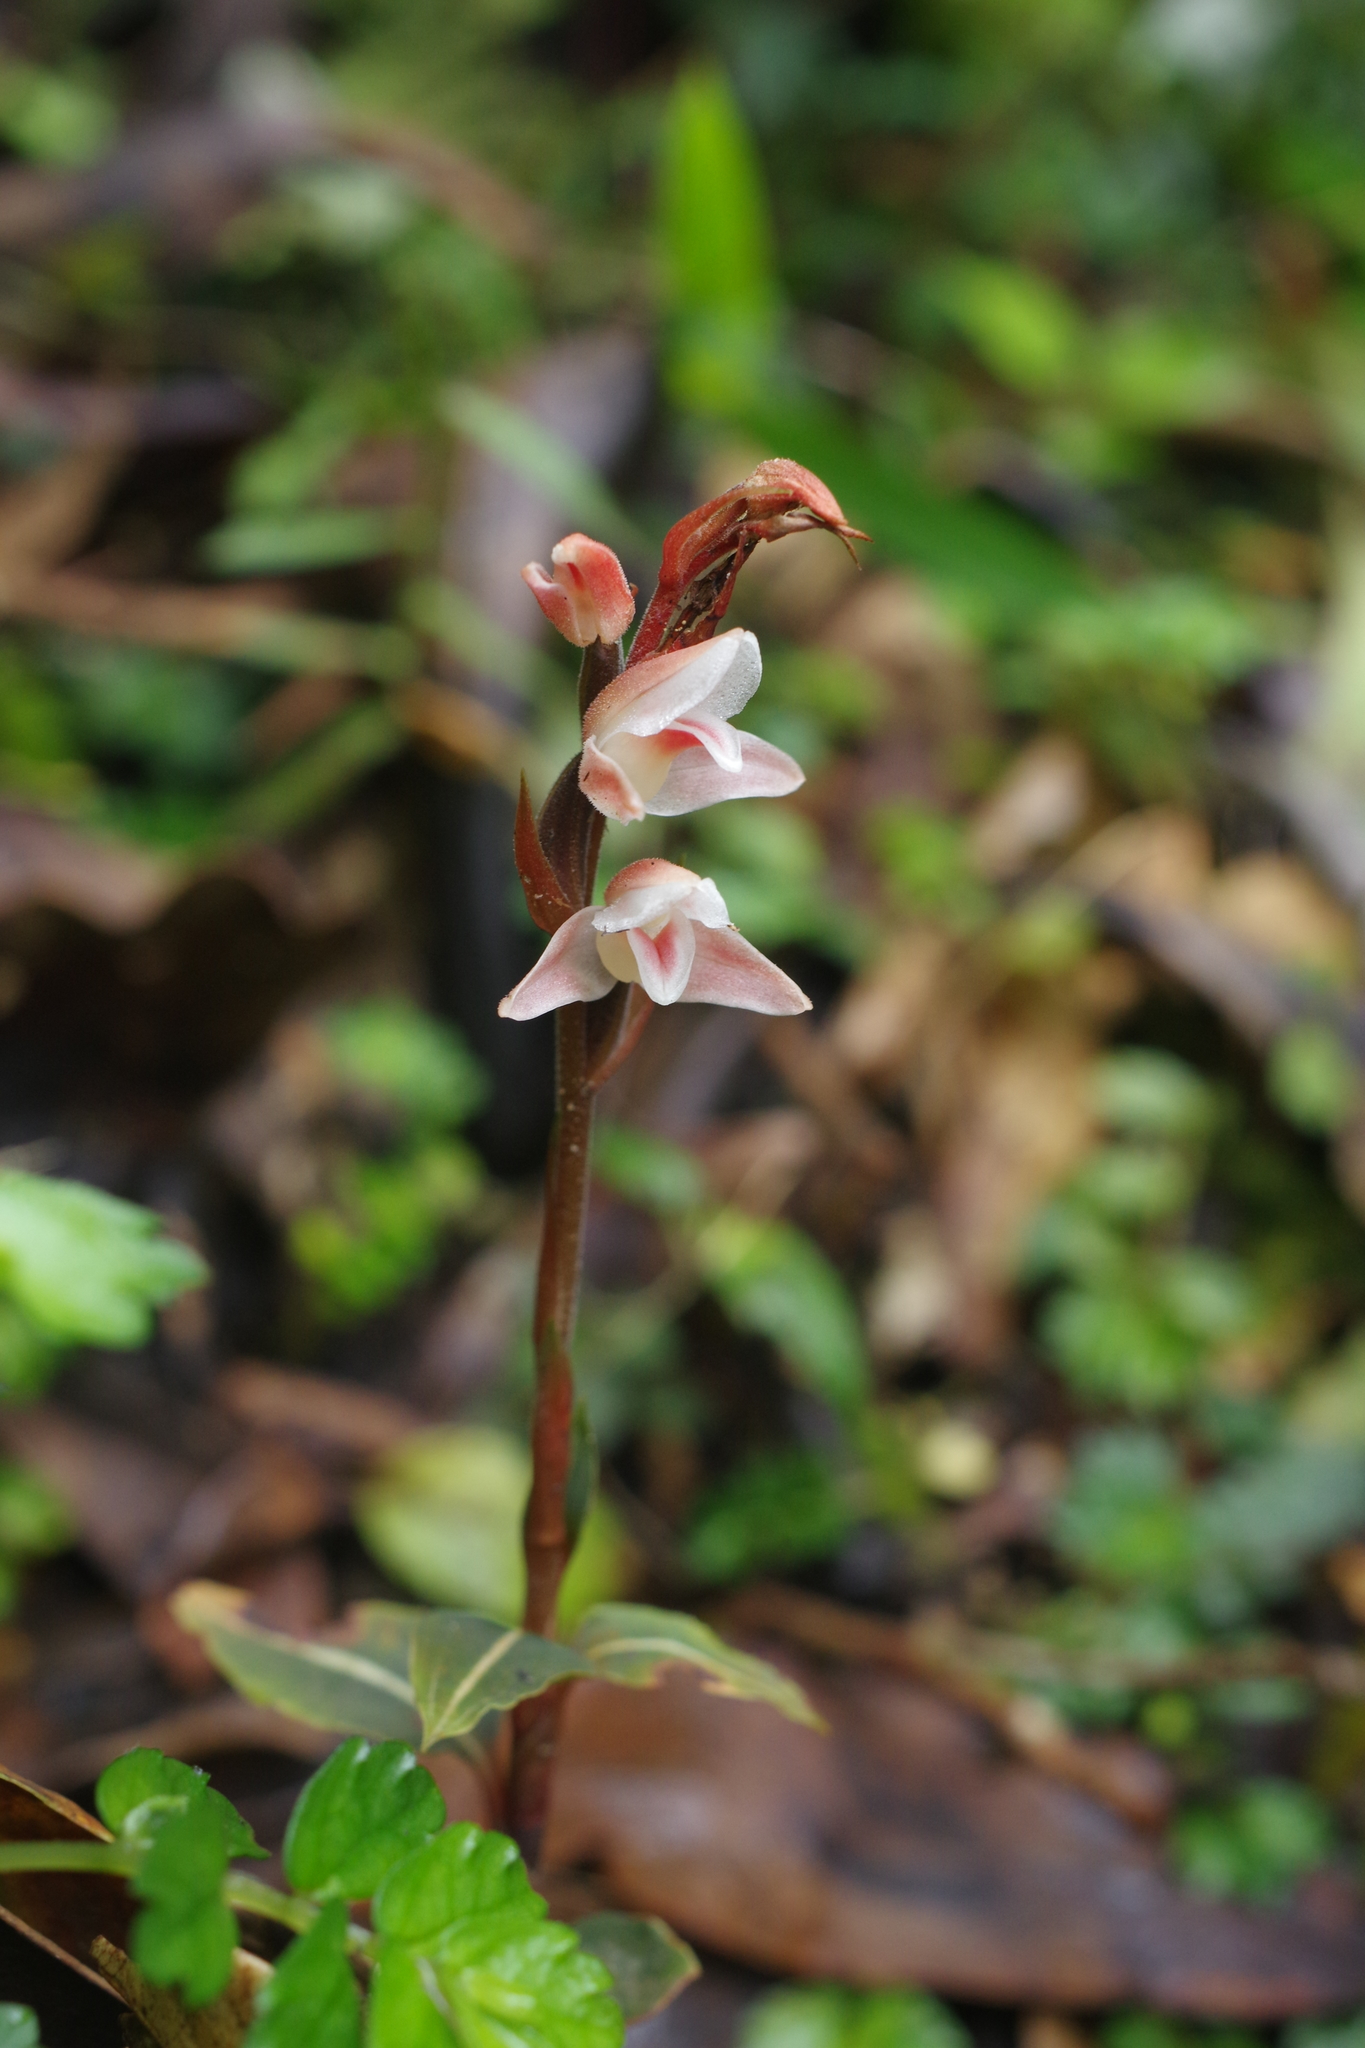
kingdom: Plantae
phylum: Tracheophyta
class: Liliopsida
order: Asparagales
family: Orchidaceae
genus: Goodyera
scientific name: Goodyera velutina
